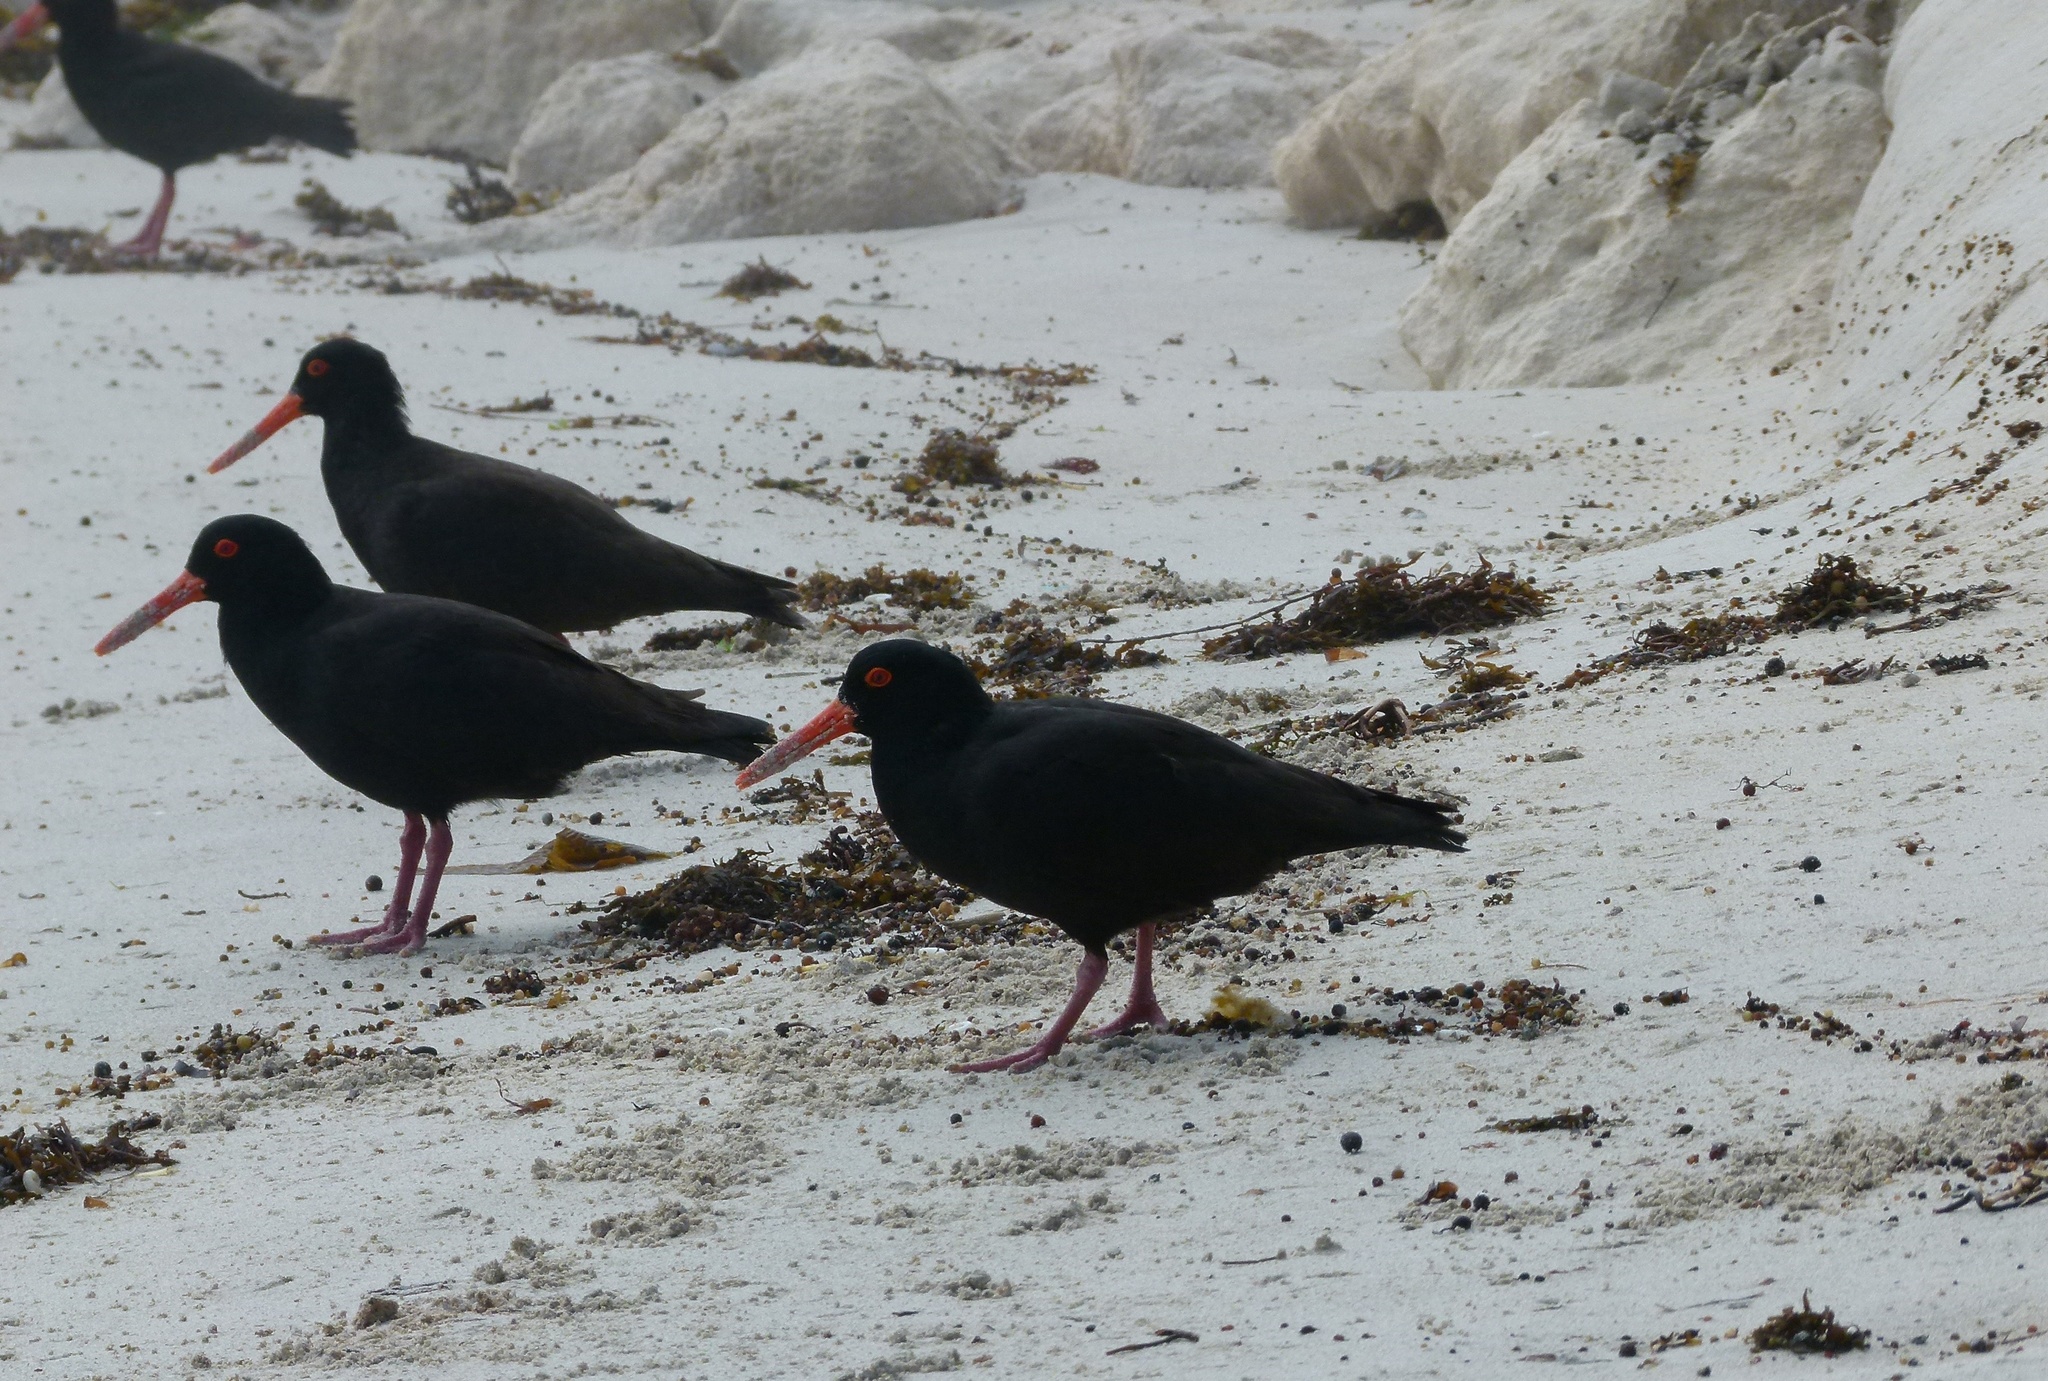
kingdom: Animalia
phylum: Chordata
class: Aves
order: Charadriiformes
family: Haematopodidae
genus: Haematopus
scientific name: Haematopus fuliginosus
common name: Sooty oystercatcher
